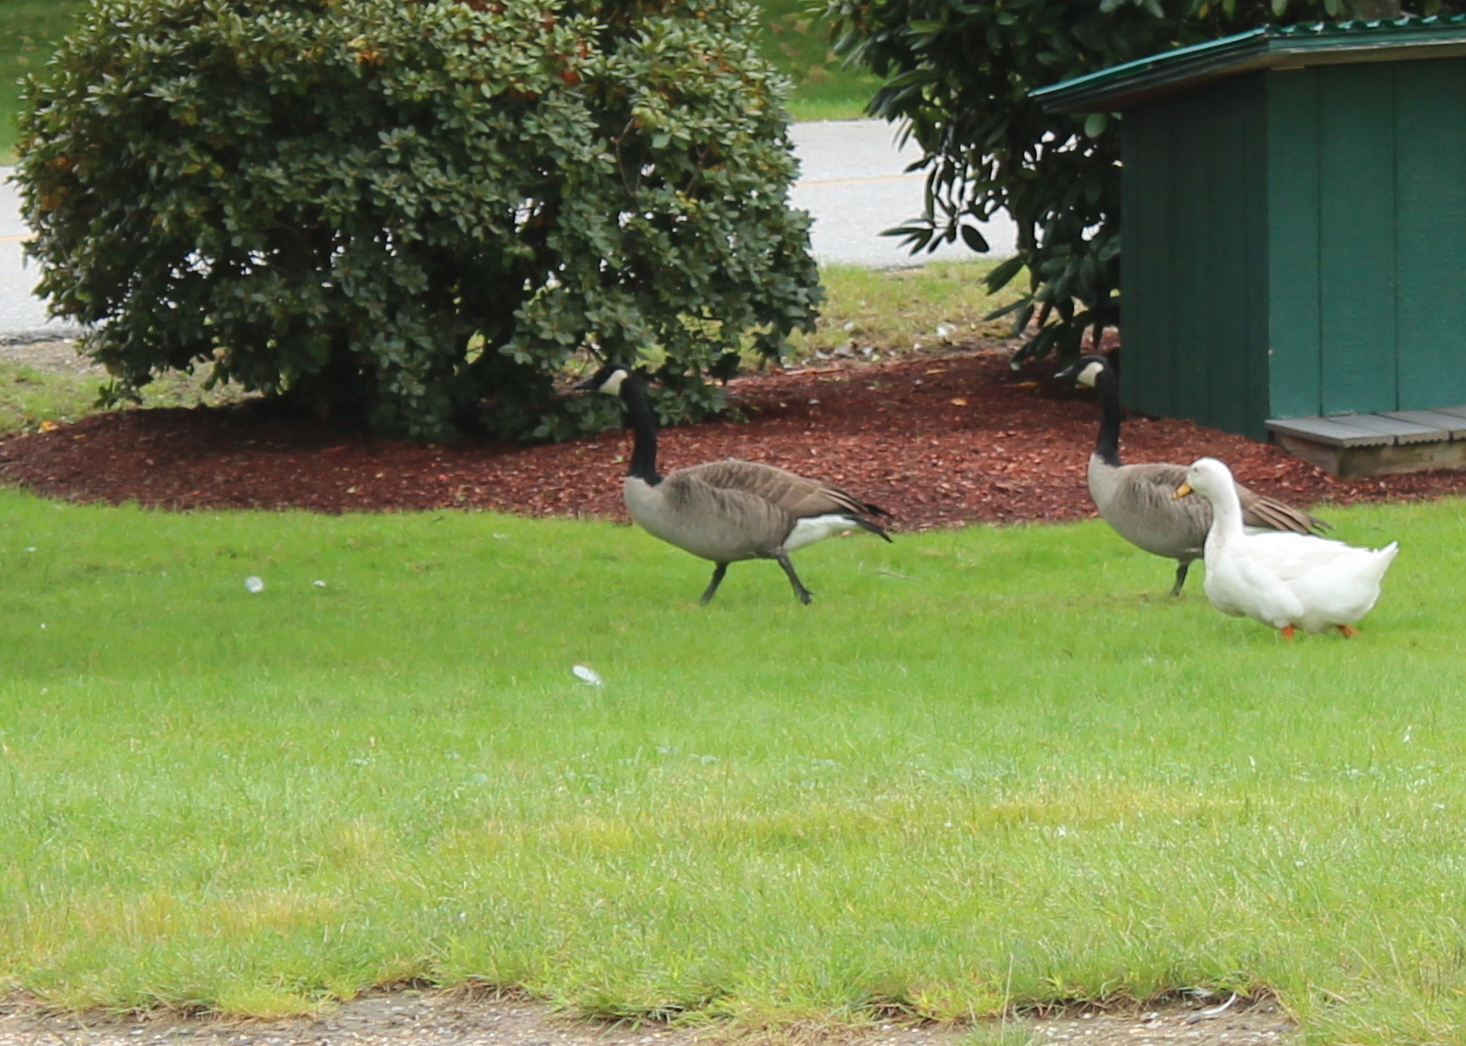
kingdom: Animalia
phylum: Chordata
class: Aves
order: Anseriformes
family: Anatidae
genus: Branta
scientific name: Branta canadensis
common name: Canada goose
